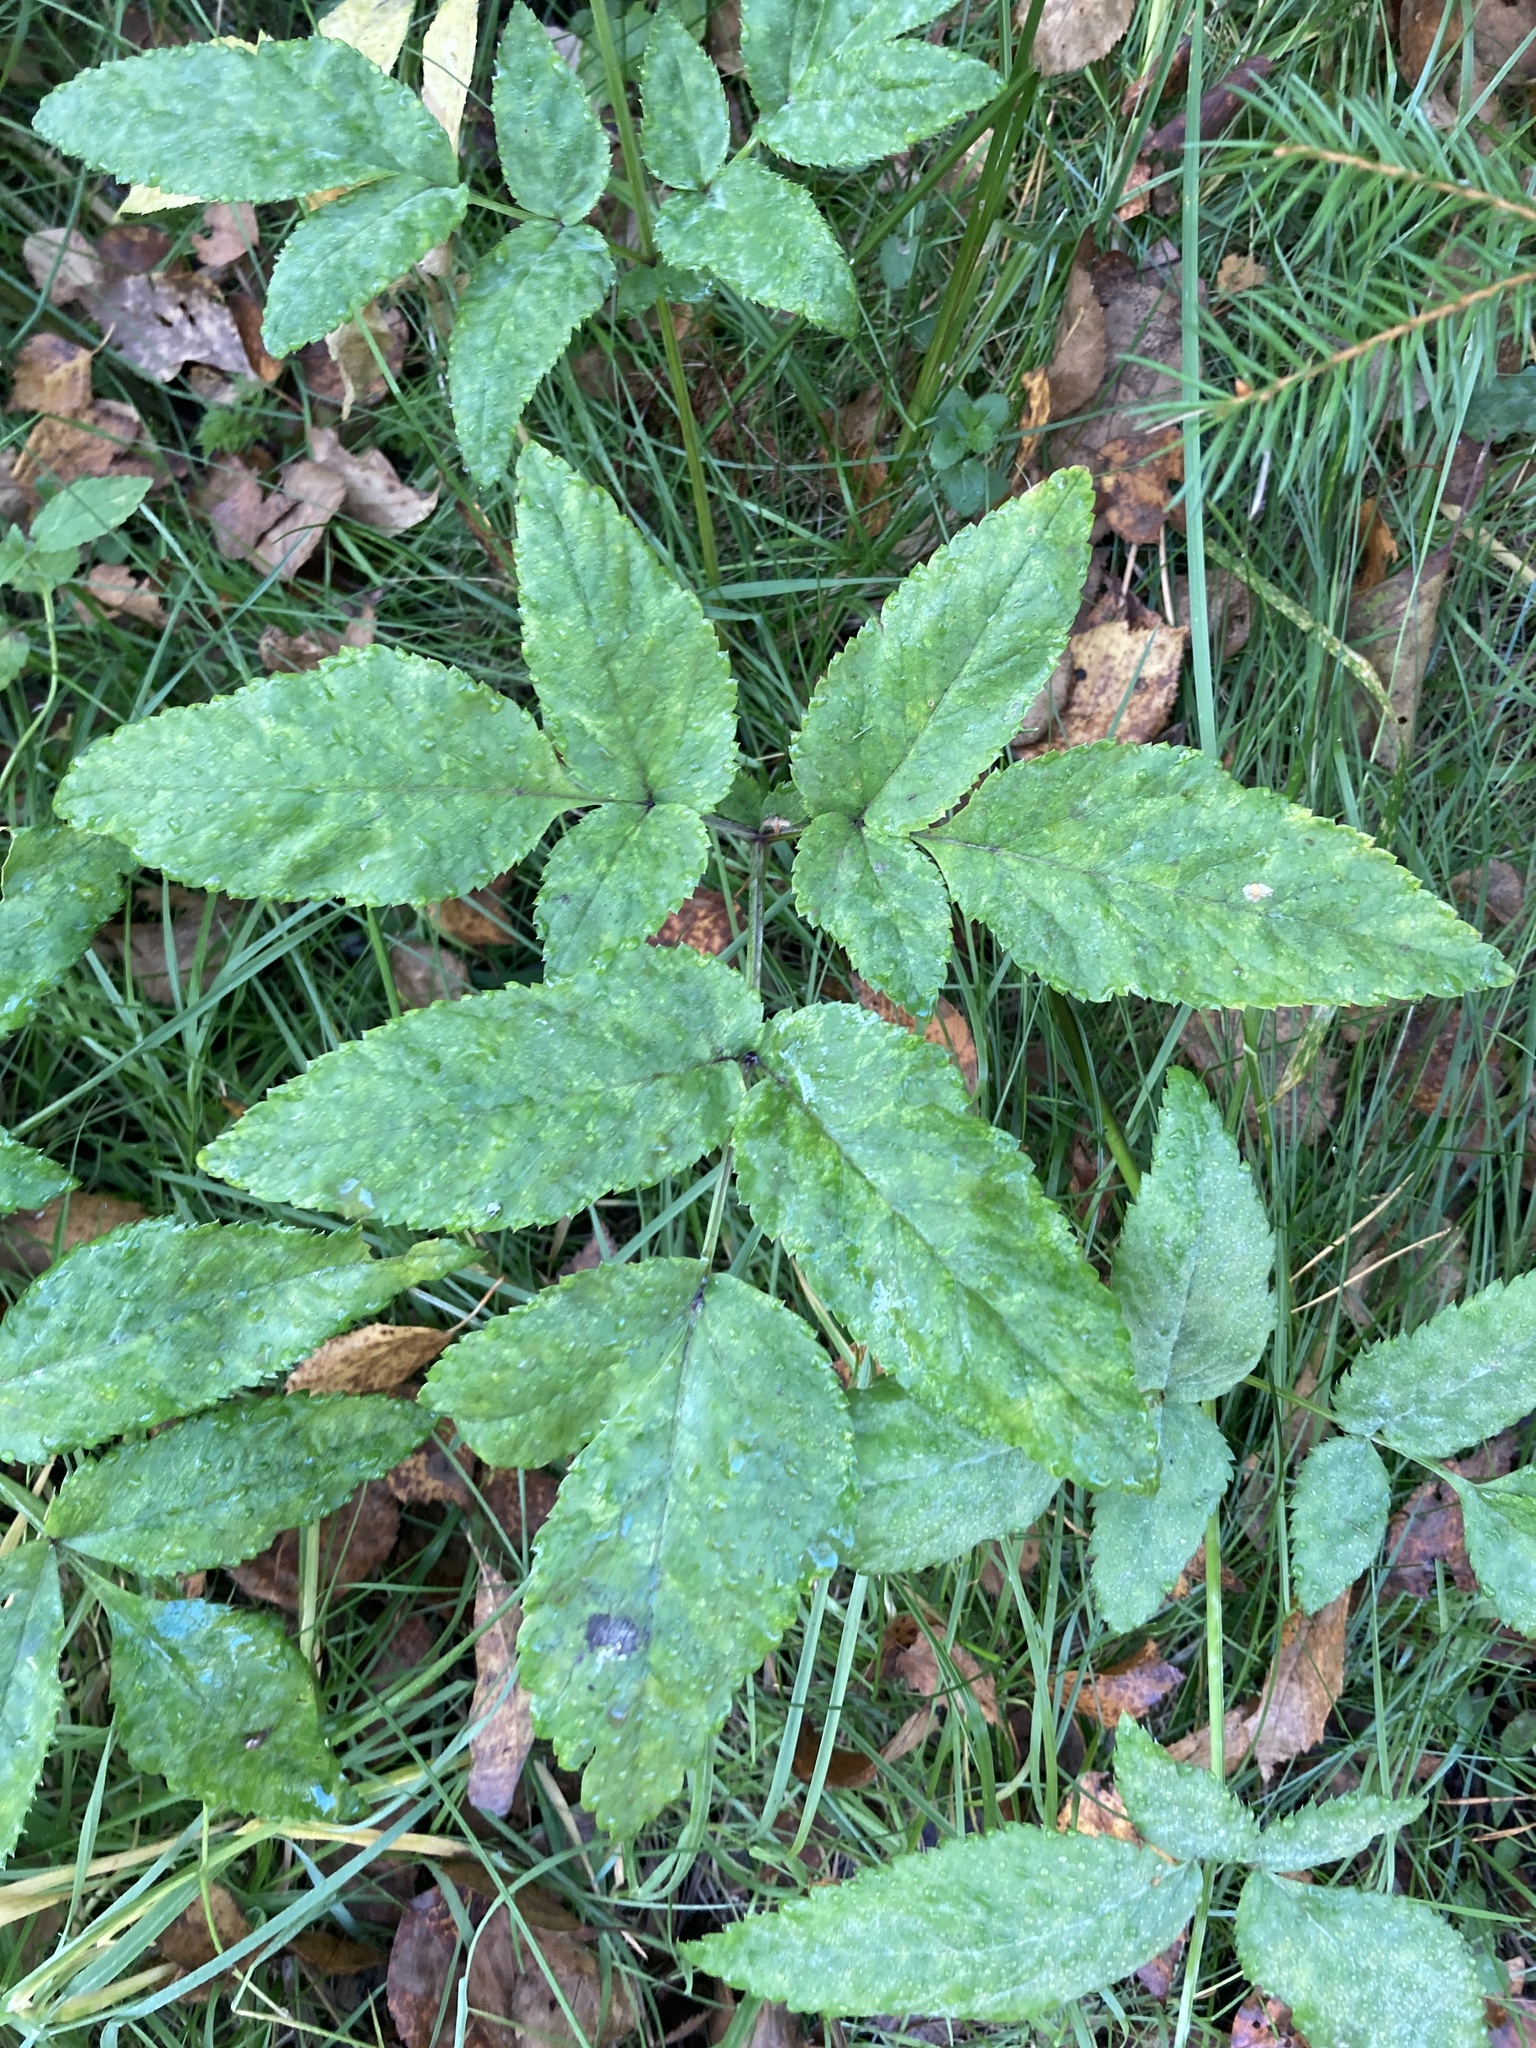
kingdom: Plantae
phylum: Tracheophyta
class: Magnoliopsida
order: Apiales
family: Apiaceae
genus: Angelica
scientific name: Angelica sylvestris
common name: Wild angelica
